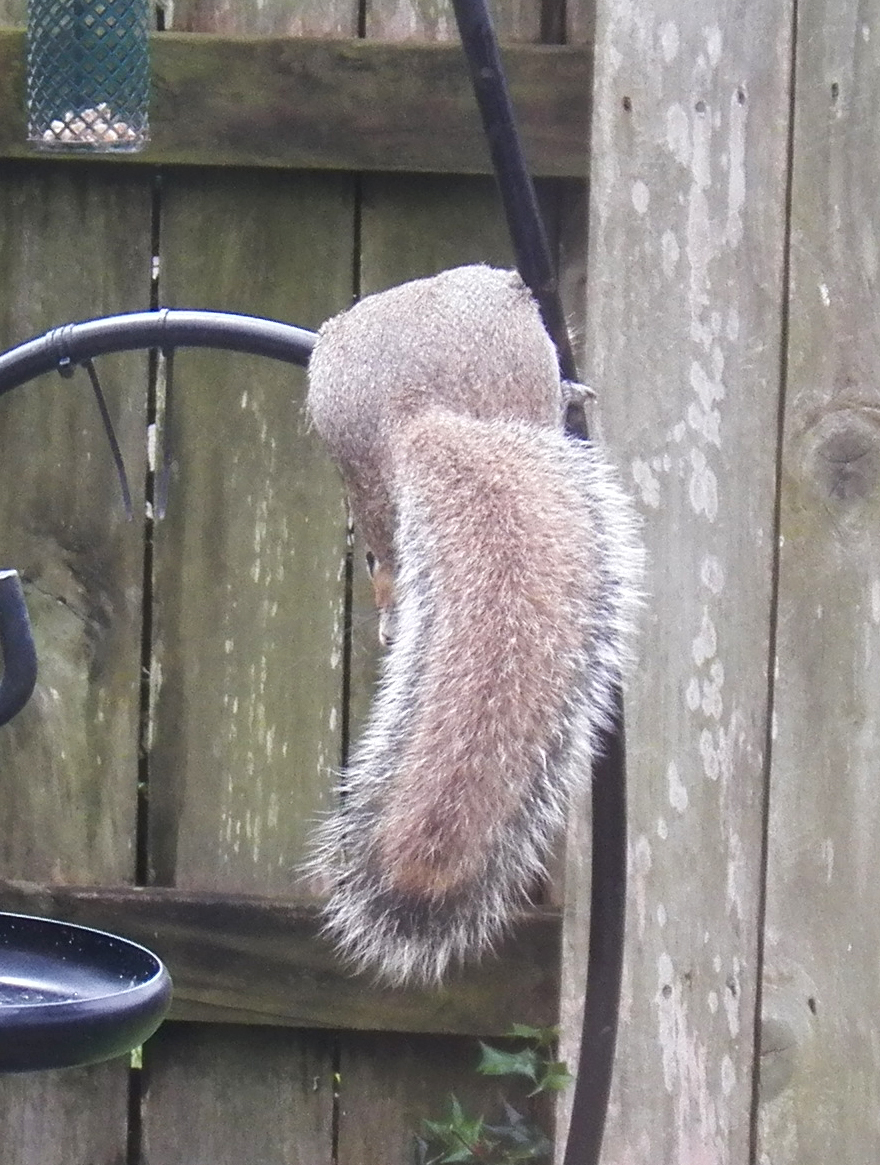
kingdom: Animalia
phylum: Chordata
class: Mammalia
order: Rodentia
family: Sciuridae
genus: Sciurus
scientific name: Sciurus carolinensis
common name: Eastern gray squirrel
